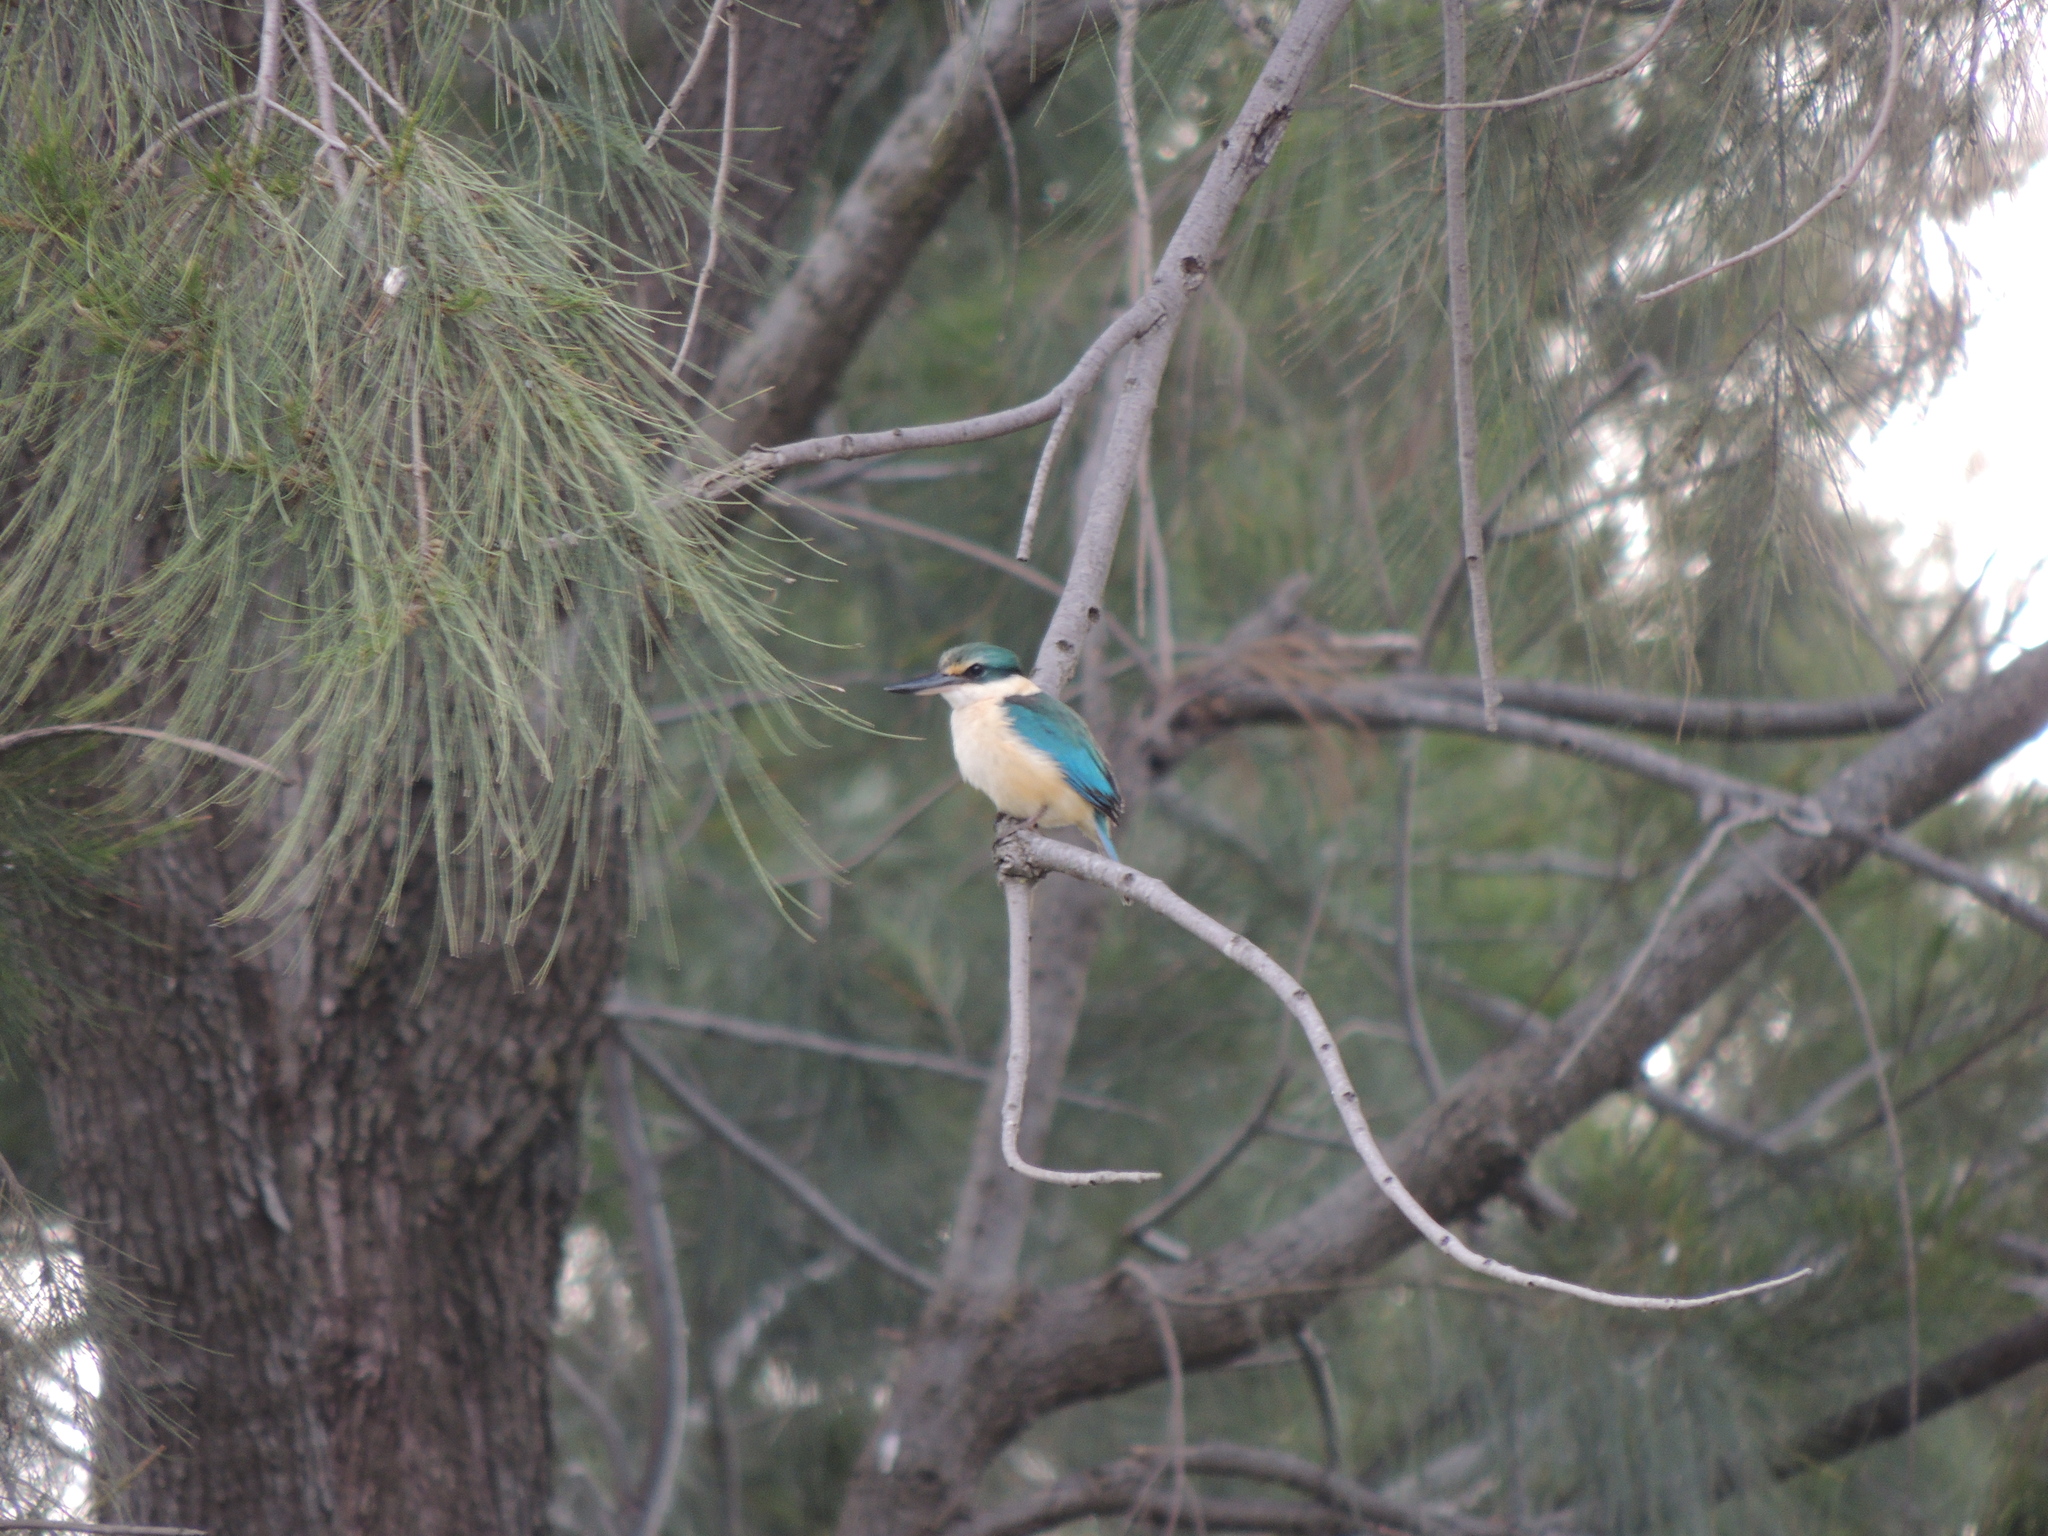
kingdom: Animalia
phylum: Chordata
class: Aves
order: Coraciiformes
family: Alcedinidae
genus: Todiramphus
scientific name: Todiramphus sanctus
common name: Sacred kingfisher
